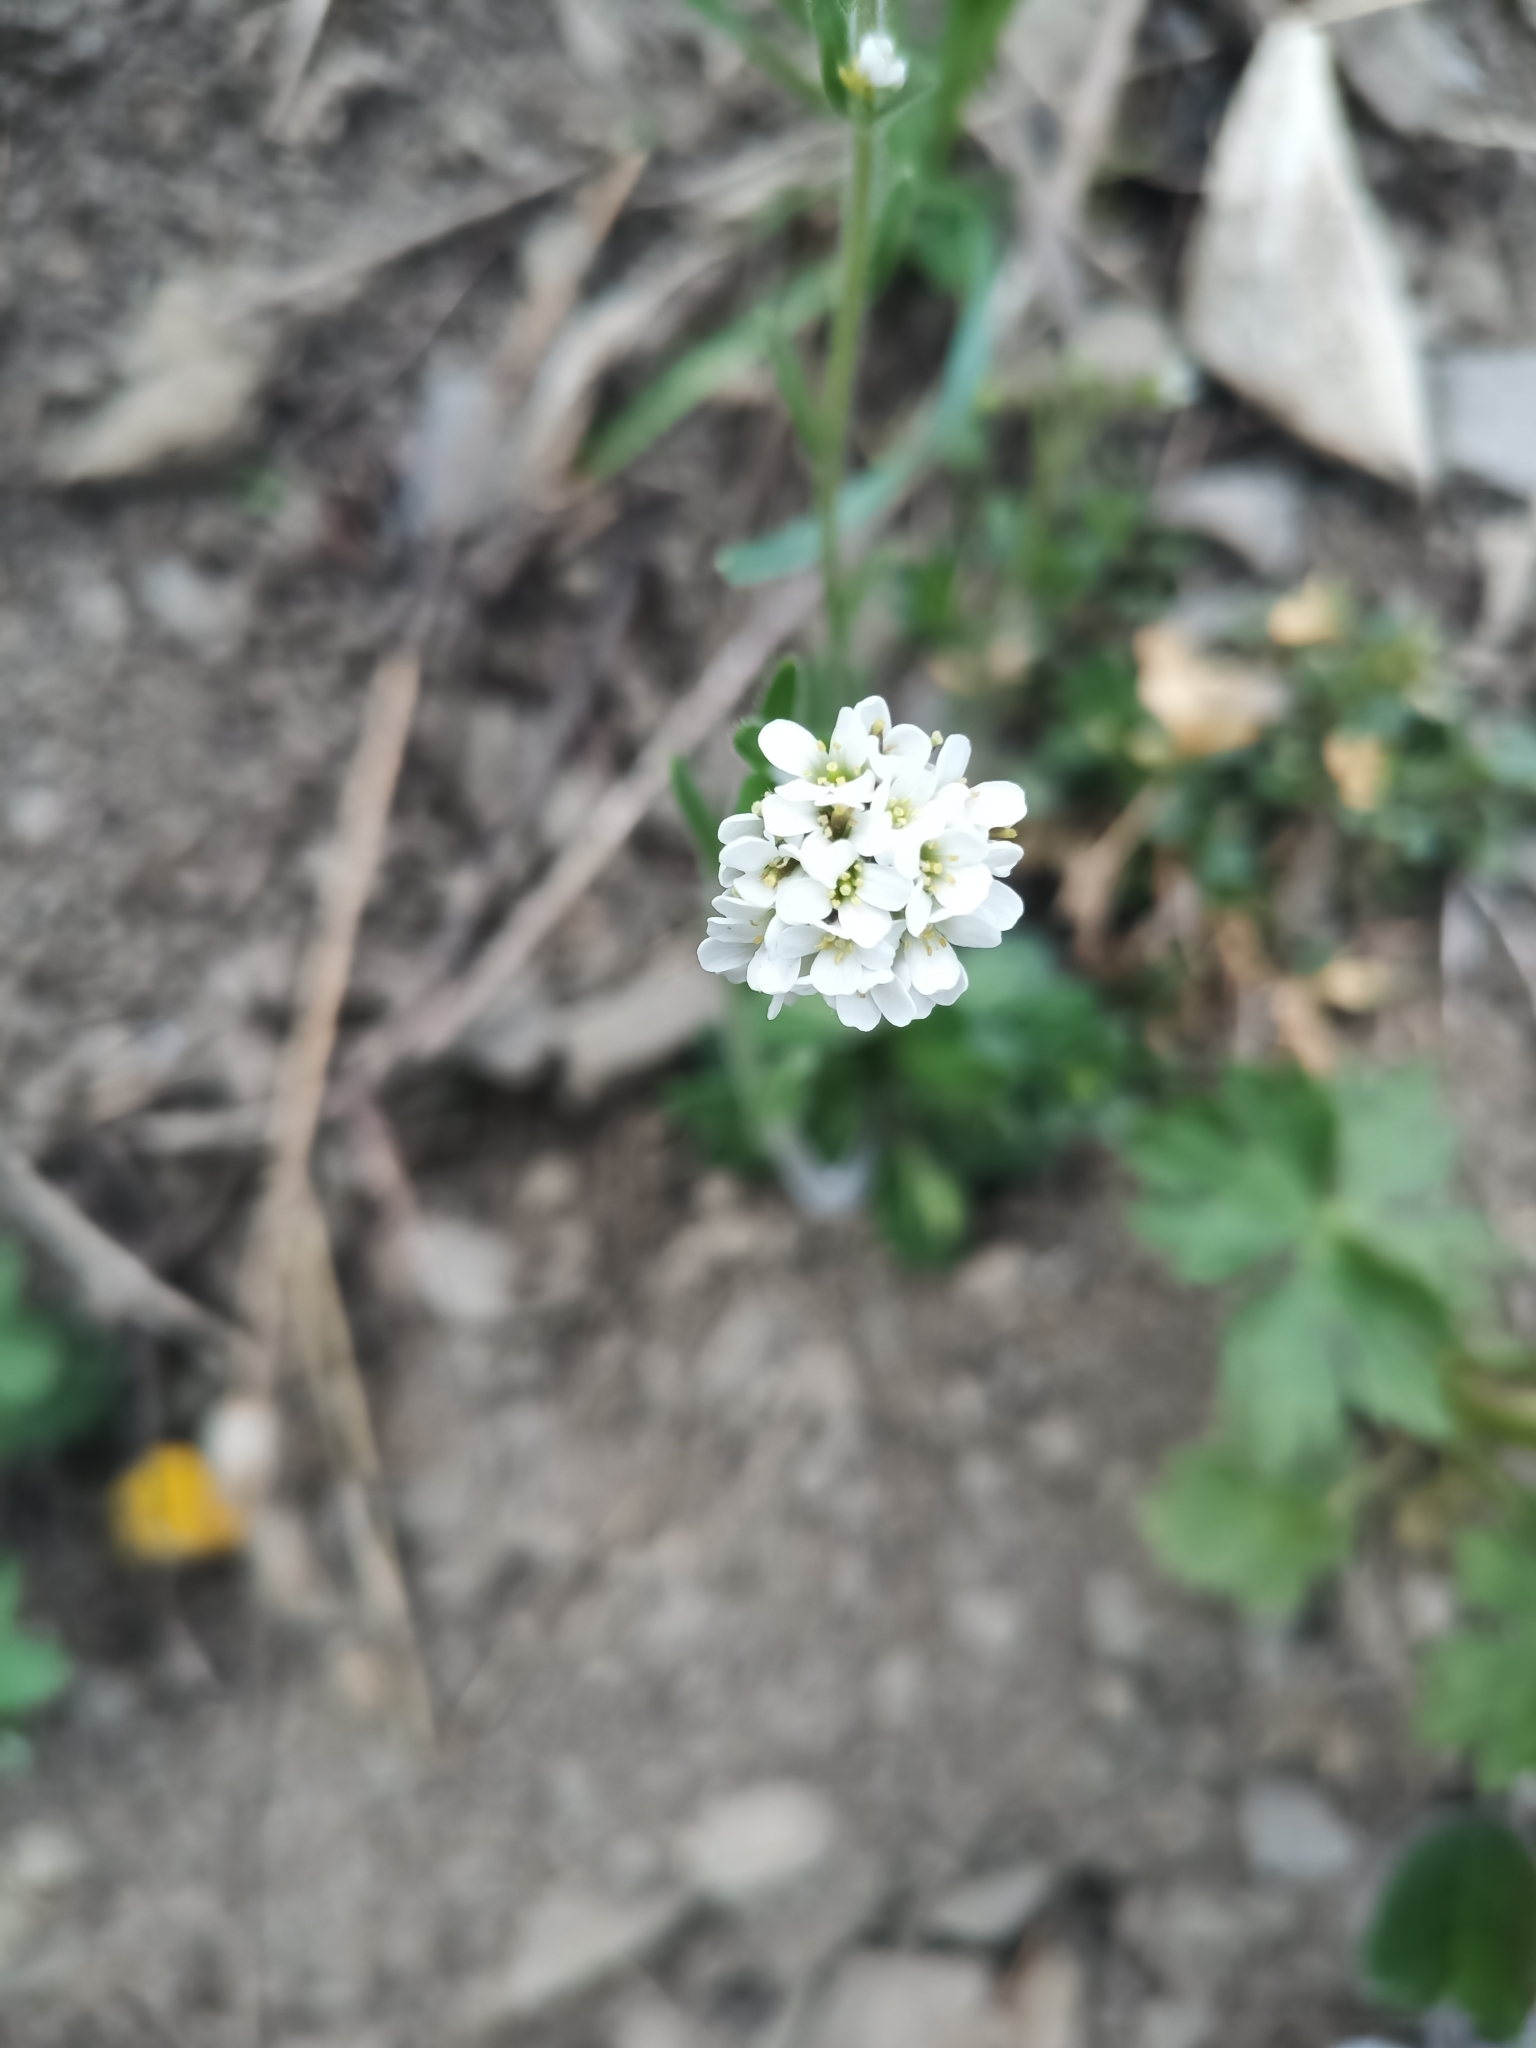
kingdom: Plantae
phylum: Tracheophyta
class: Magnoliopsida
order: Brassicales
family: Brassicaceae
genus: Berteroa
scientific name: Berteroa incana
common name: Hoary alison
